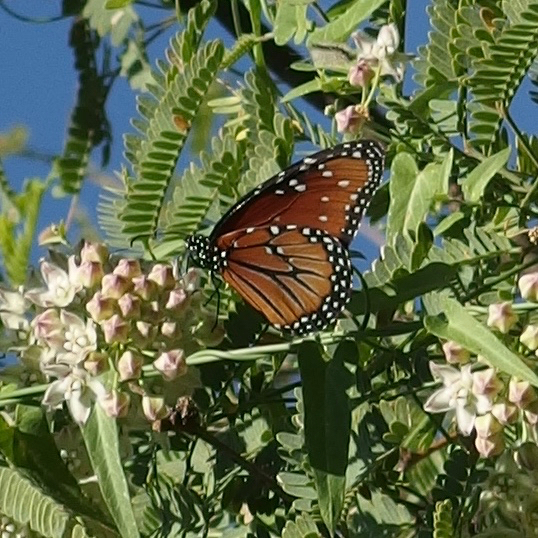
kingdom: Animalia
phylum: Arthropoda
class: Insecta
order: Lepidoptera
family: Nymphalidae
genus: Danaus
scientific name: Danaus gilippus
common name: Queen
